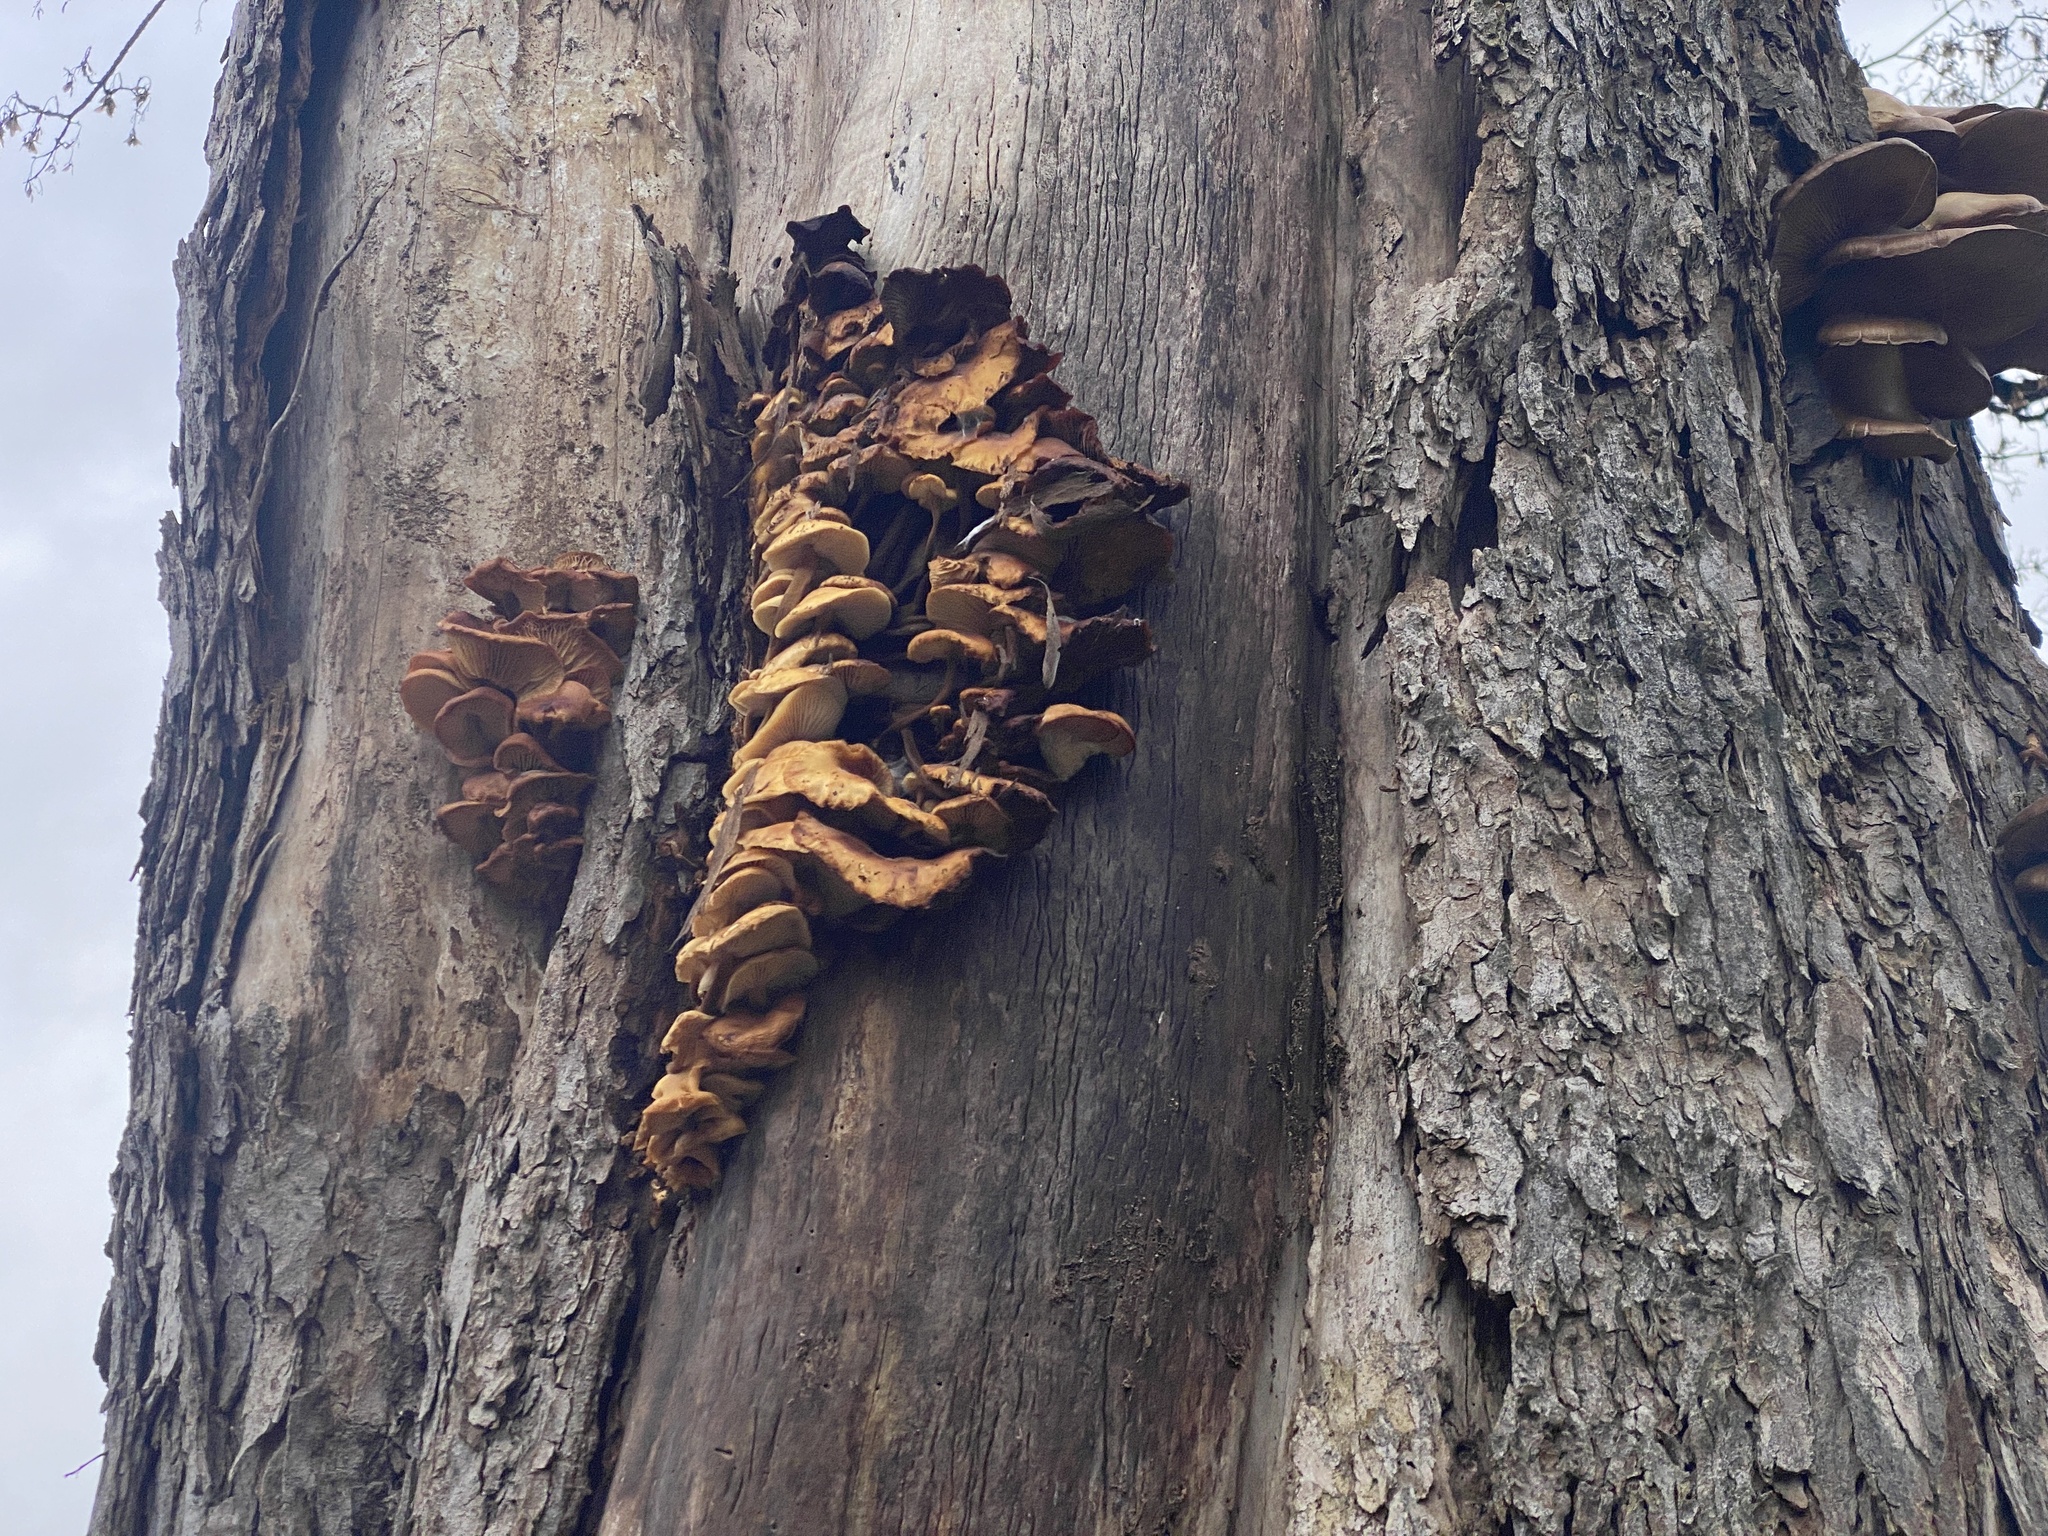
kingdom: Fungi
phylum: Basidiomycota
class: Agaricomycetes
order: Agaricales
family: Physalacriaceae
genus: Flammulina
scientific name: Flammulina
